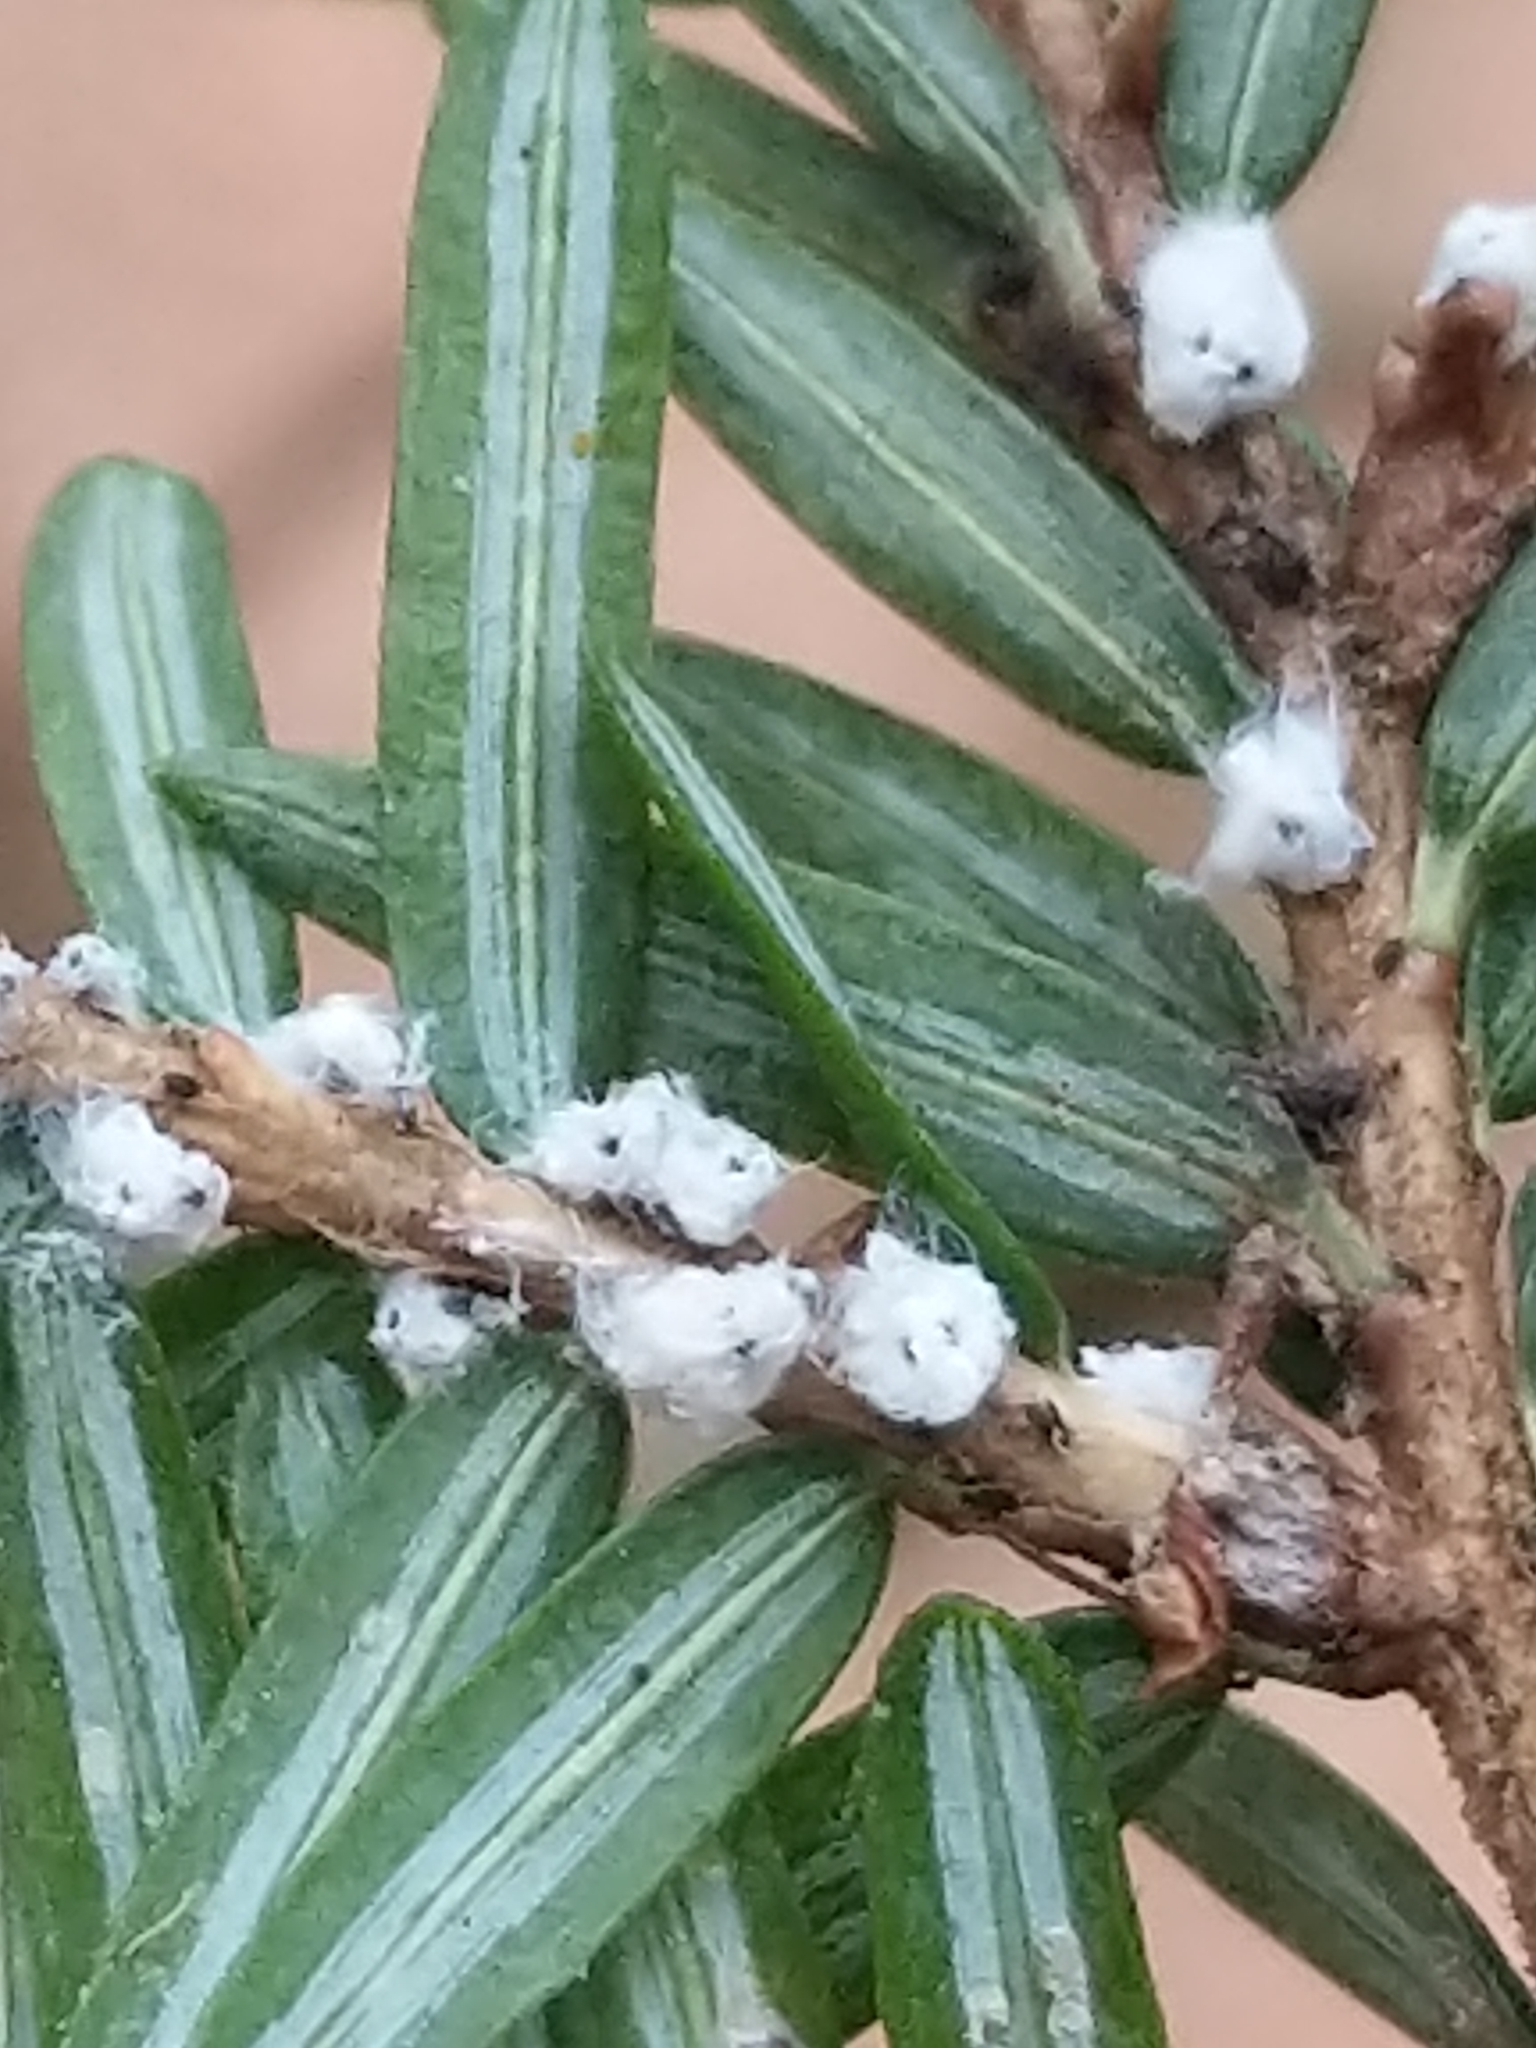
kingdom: Animalia
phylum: Arthropoda
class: Insecta
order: Hemiptera
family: Adelgidae
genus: Adelges
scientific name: Adelges tsugae
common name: Hemlock woolly adelgid
